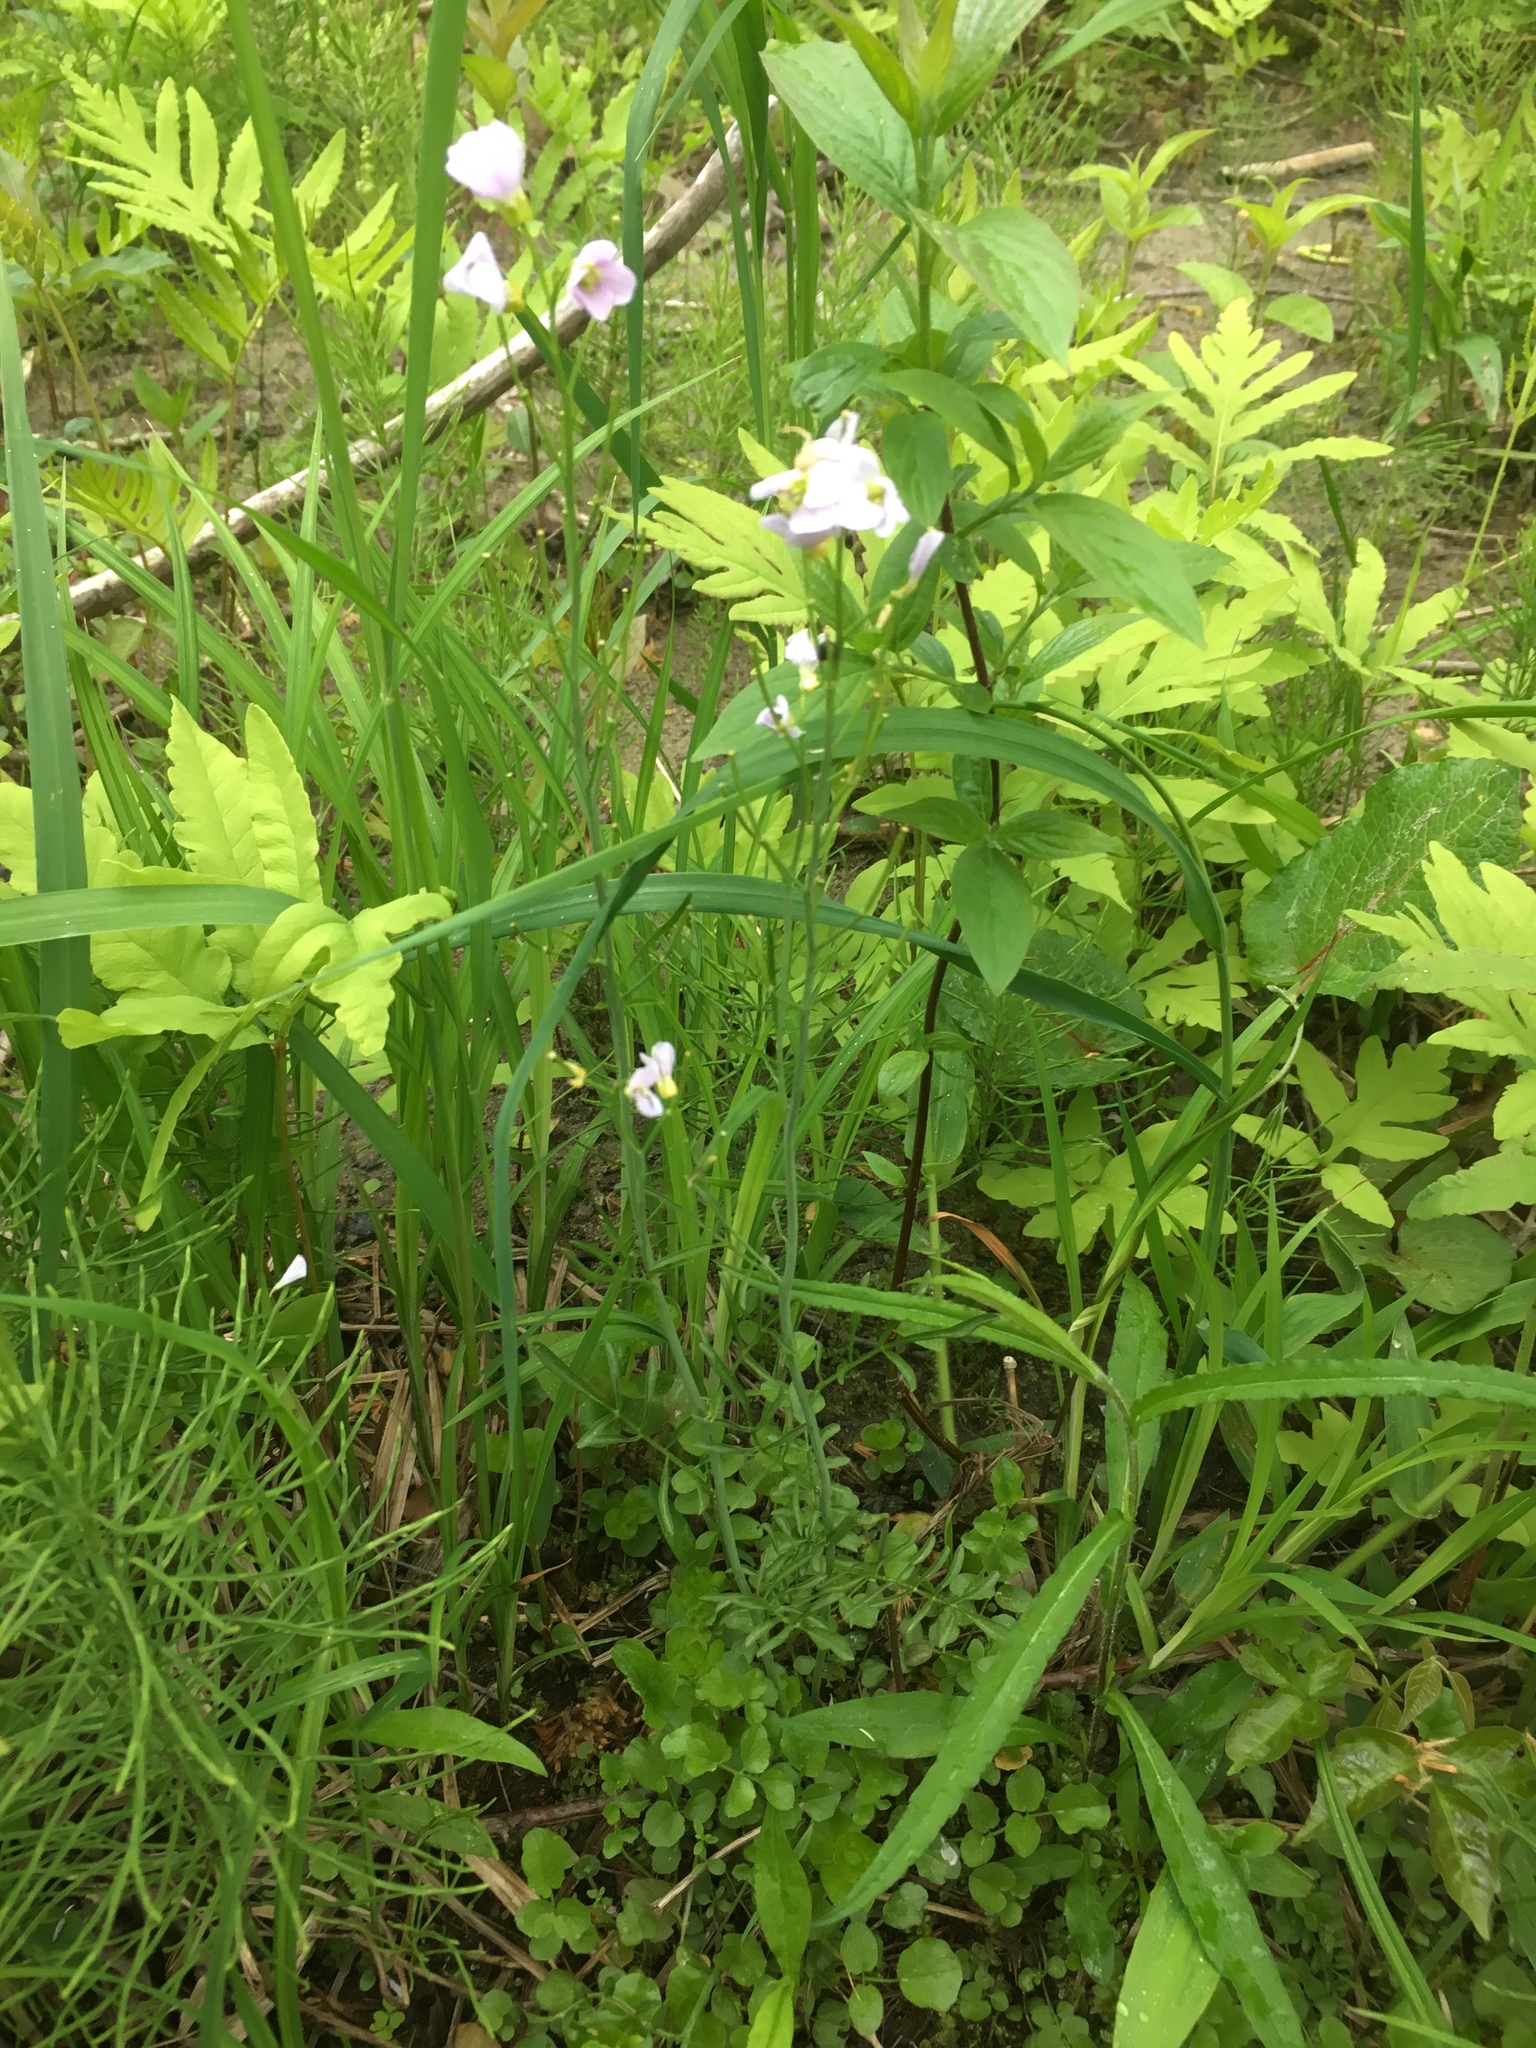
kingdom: Plantae
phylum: Tracheophyta
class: Magnoliopsida
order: Brassicales
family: Brassicaceae
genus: Cardamine
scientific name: Cardamine pratensis
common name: Cuckoo flower
